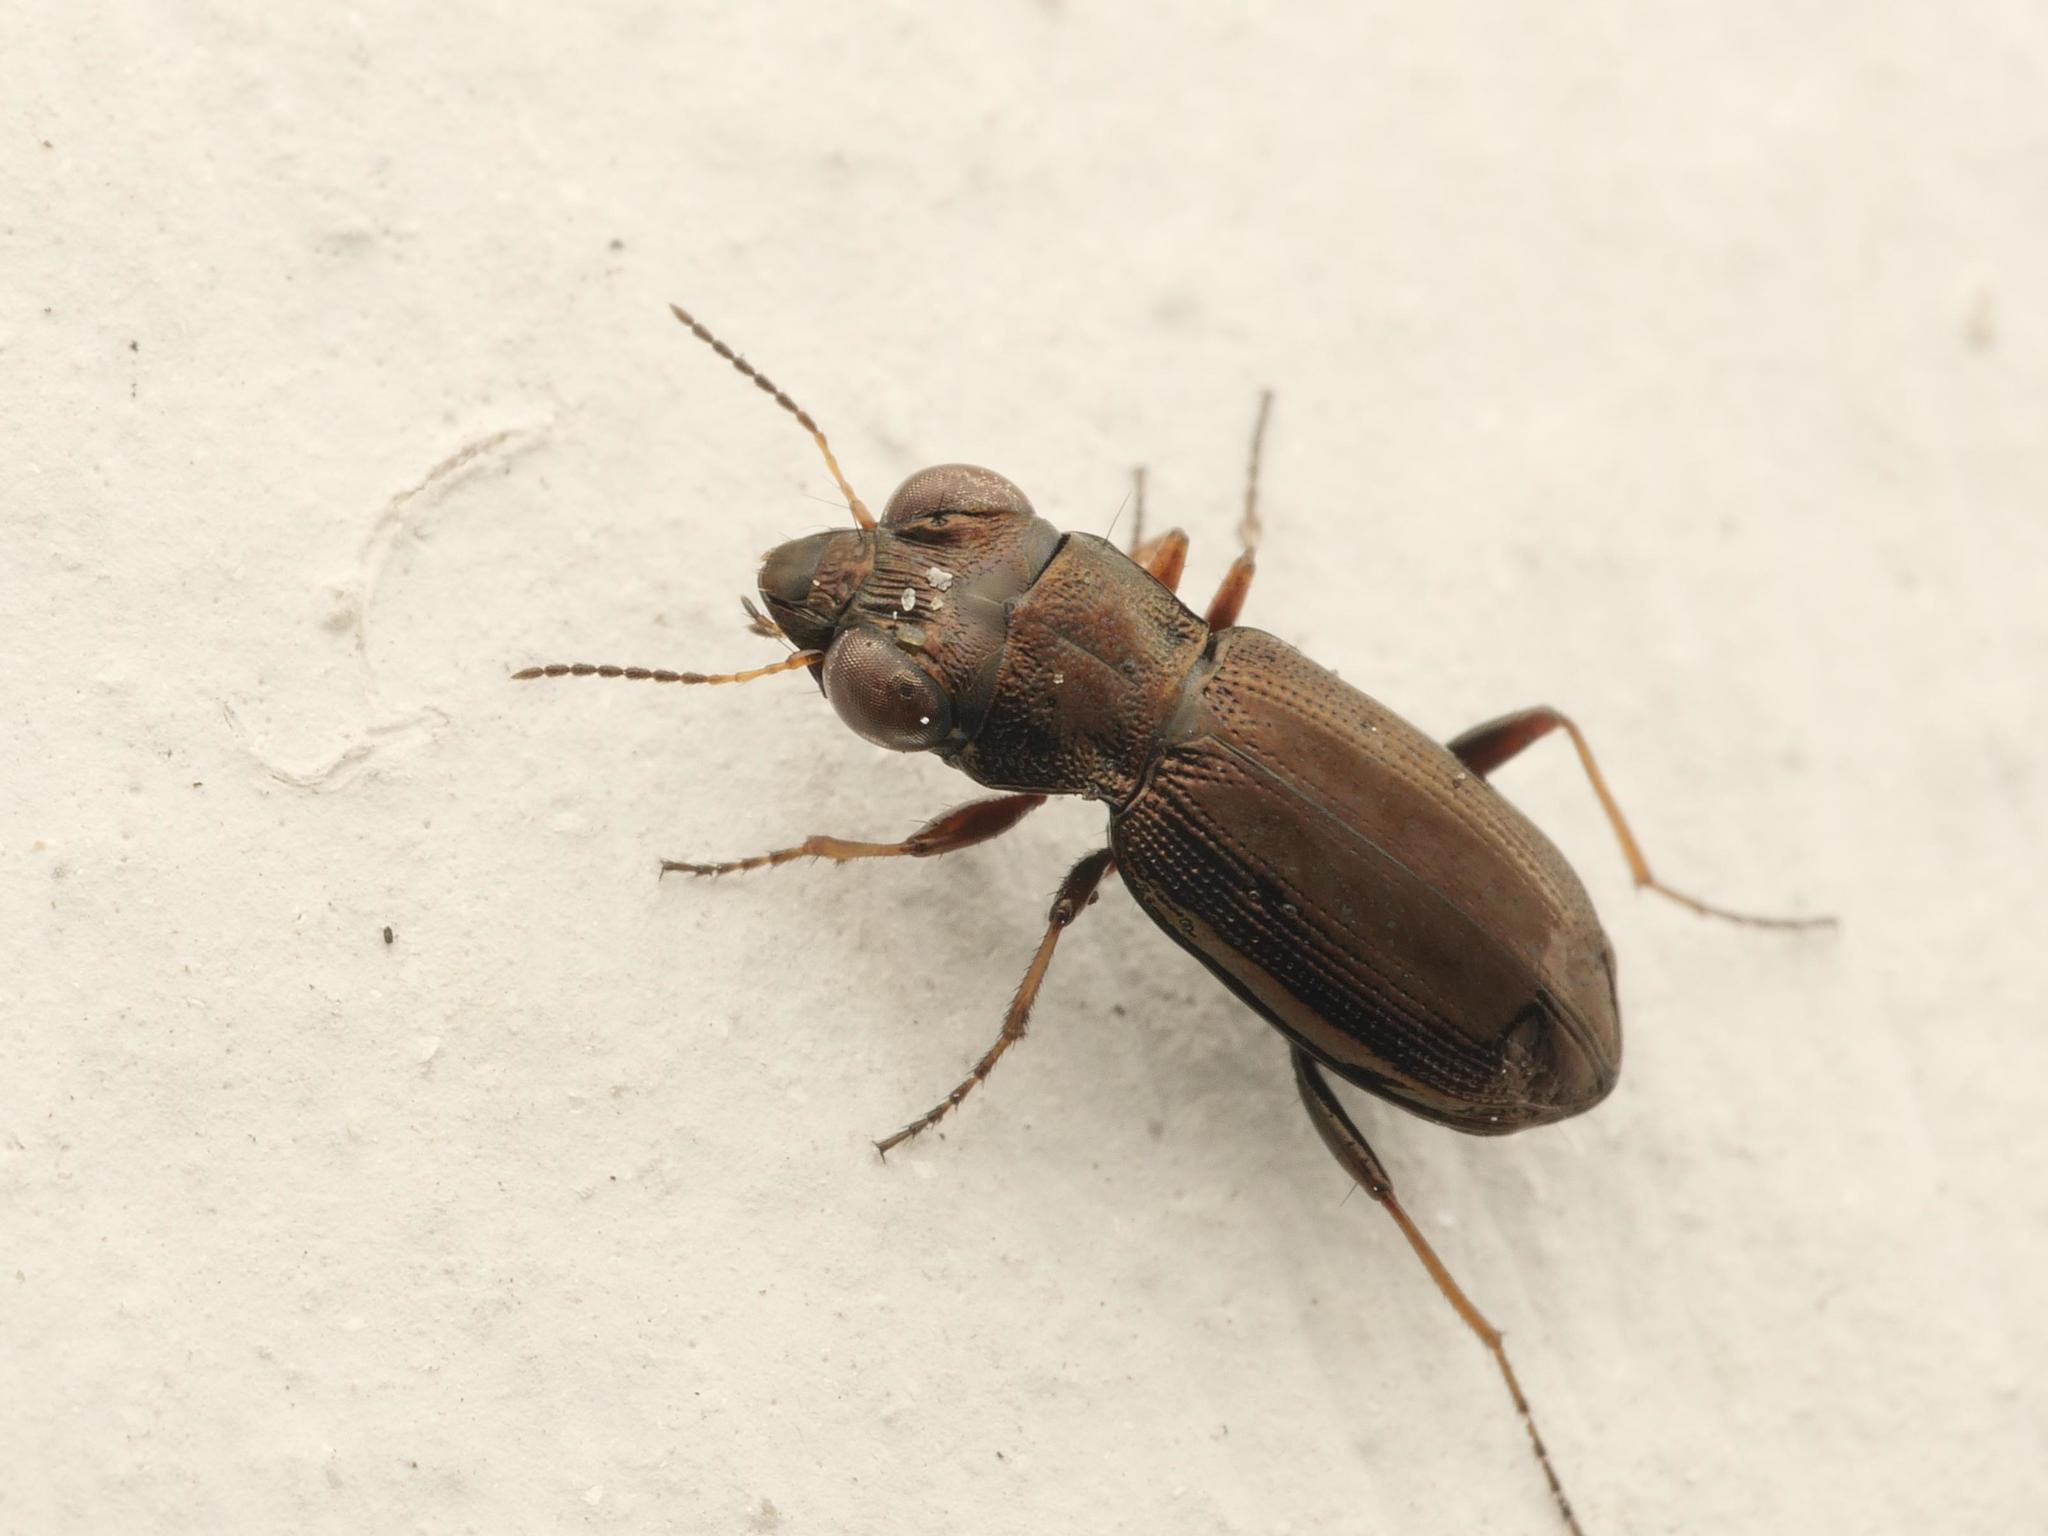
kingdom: Animalia
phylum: Arthropoda
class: Insecta
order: Coleoptera
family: Carabidae
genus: Notiophilus
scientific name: Notiophilus rufipes
